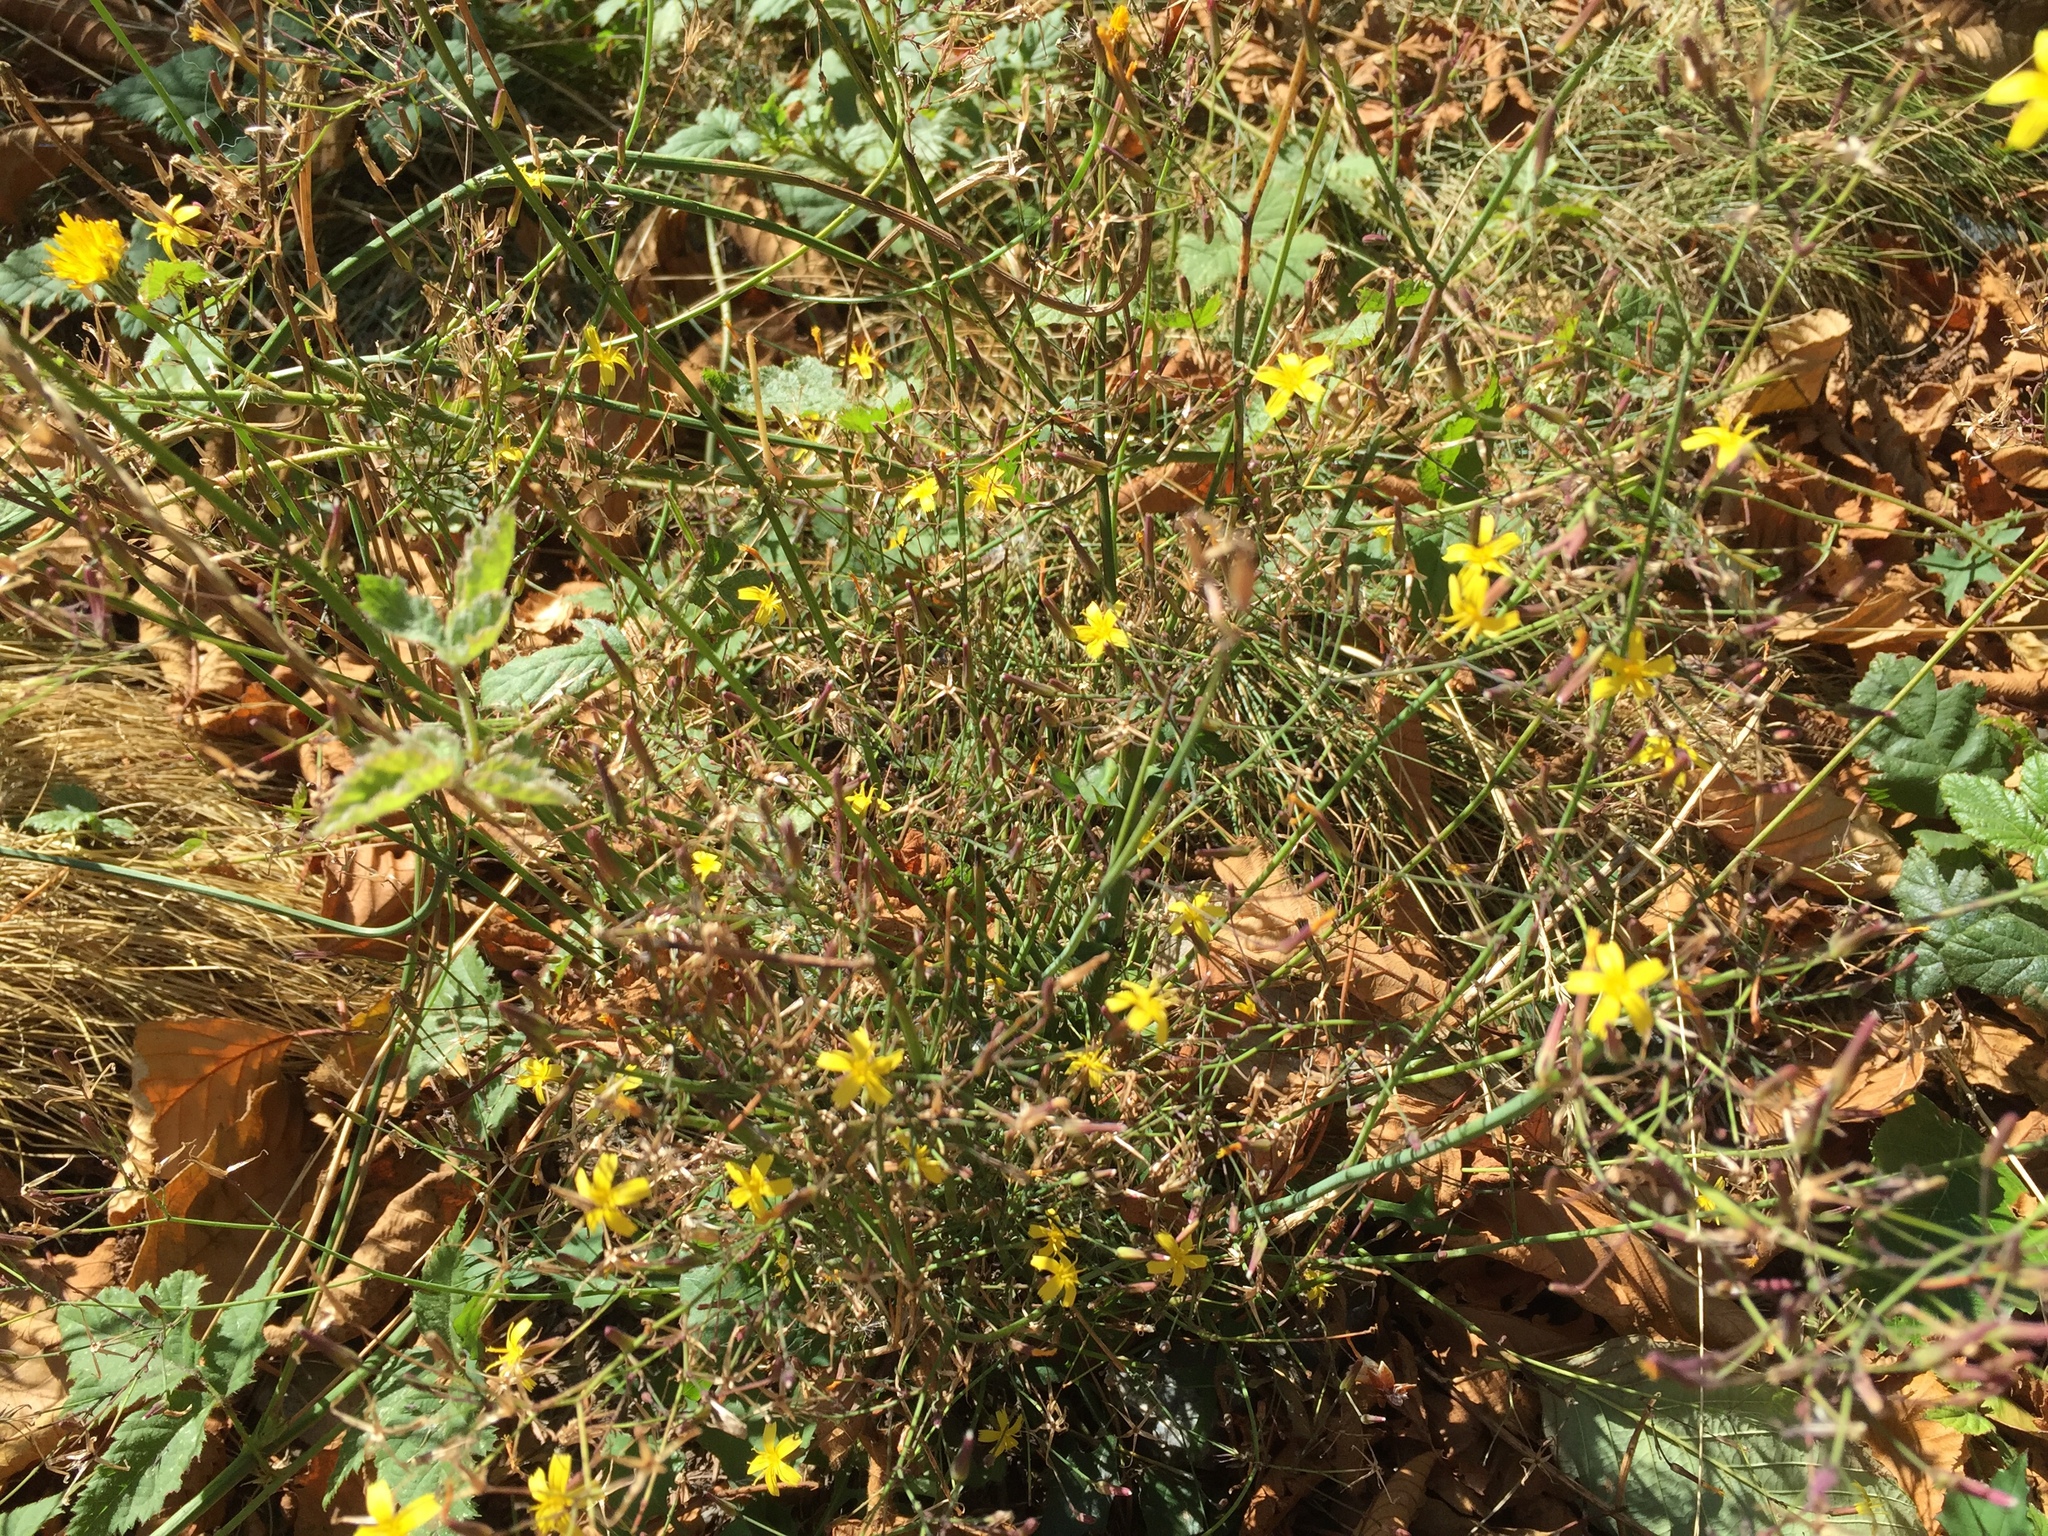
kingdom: Plantae
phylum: Tracheophyta
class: Magnoliopsida
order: Asterales
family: Asteraceae
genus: Mycelis
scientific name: Mycelis muralis
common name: Wall lettuce
